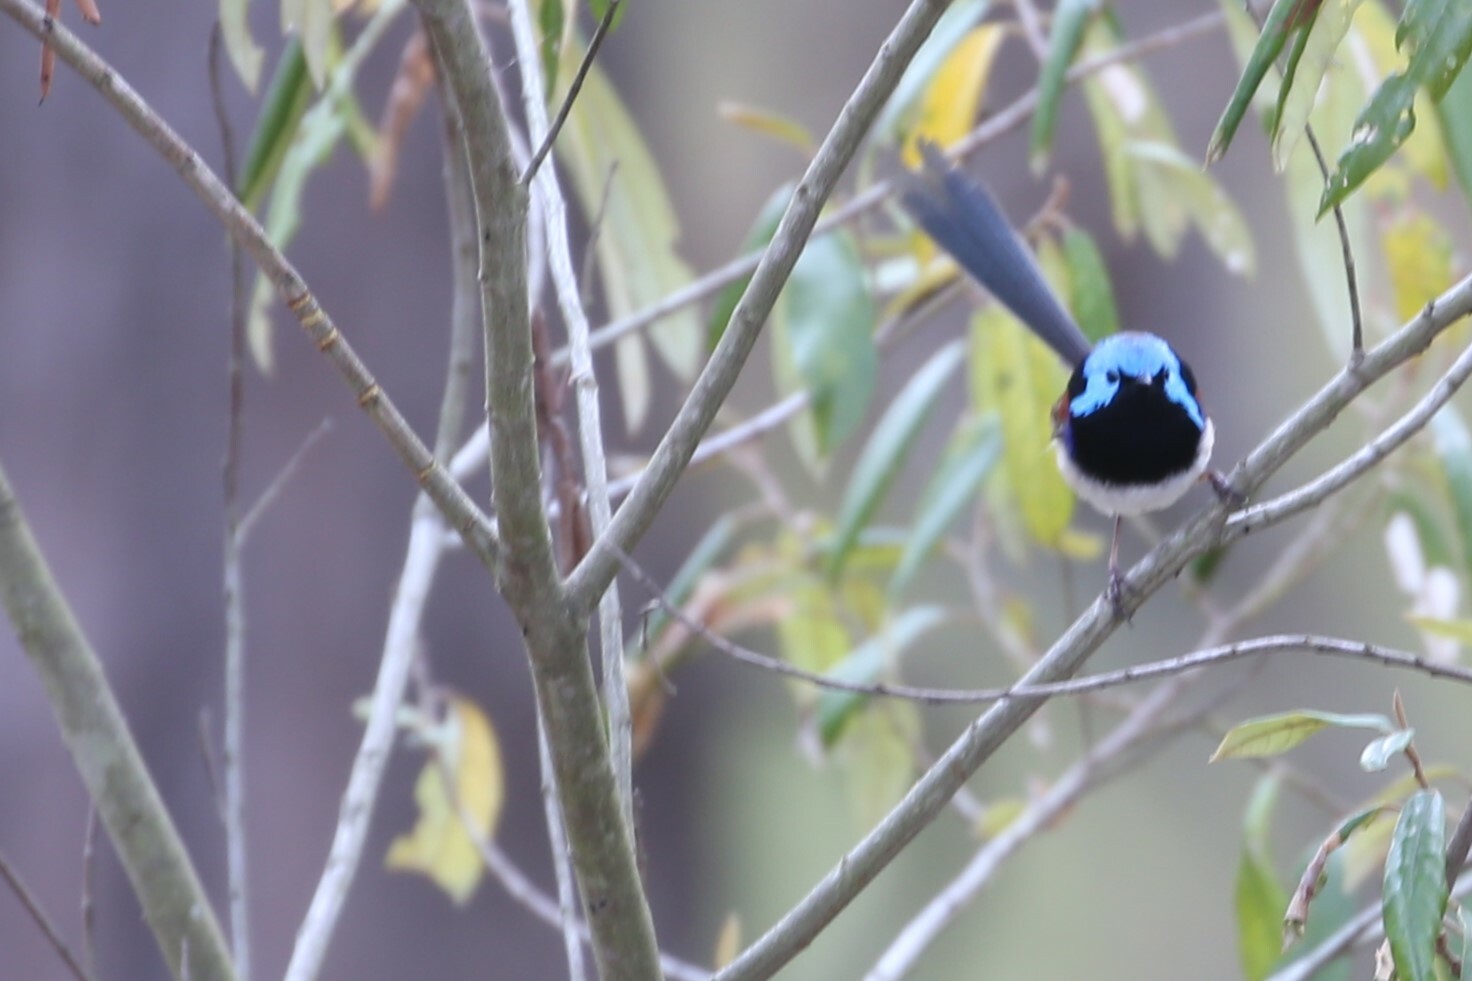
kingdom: Animalia
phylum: Chordata
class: Aves
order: Passeriformes
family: Maluridae
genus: Malurus
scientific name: Malurus lamberti
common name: Variegated fairywren
